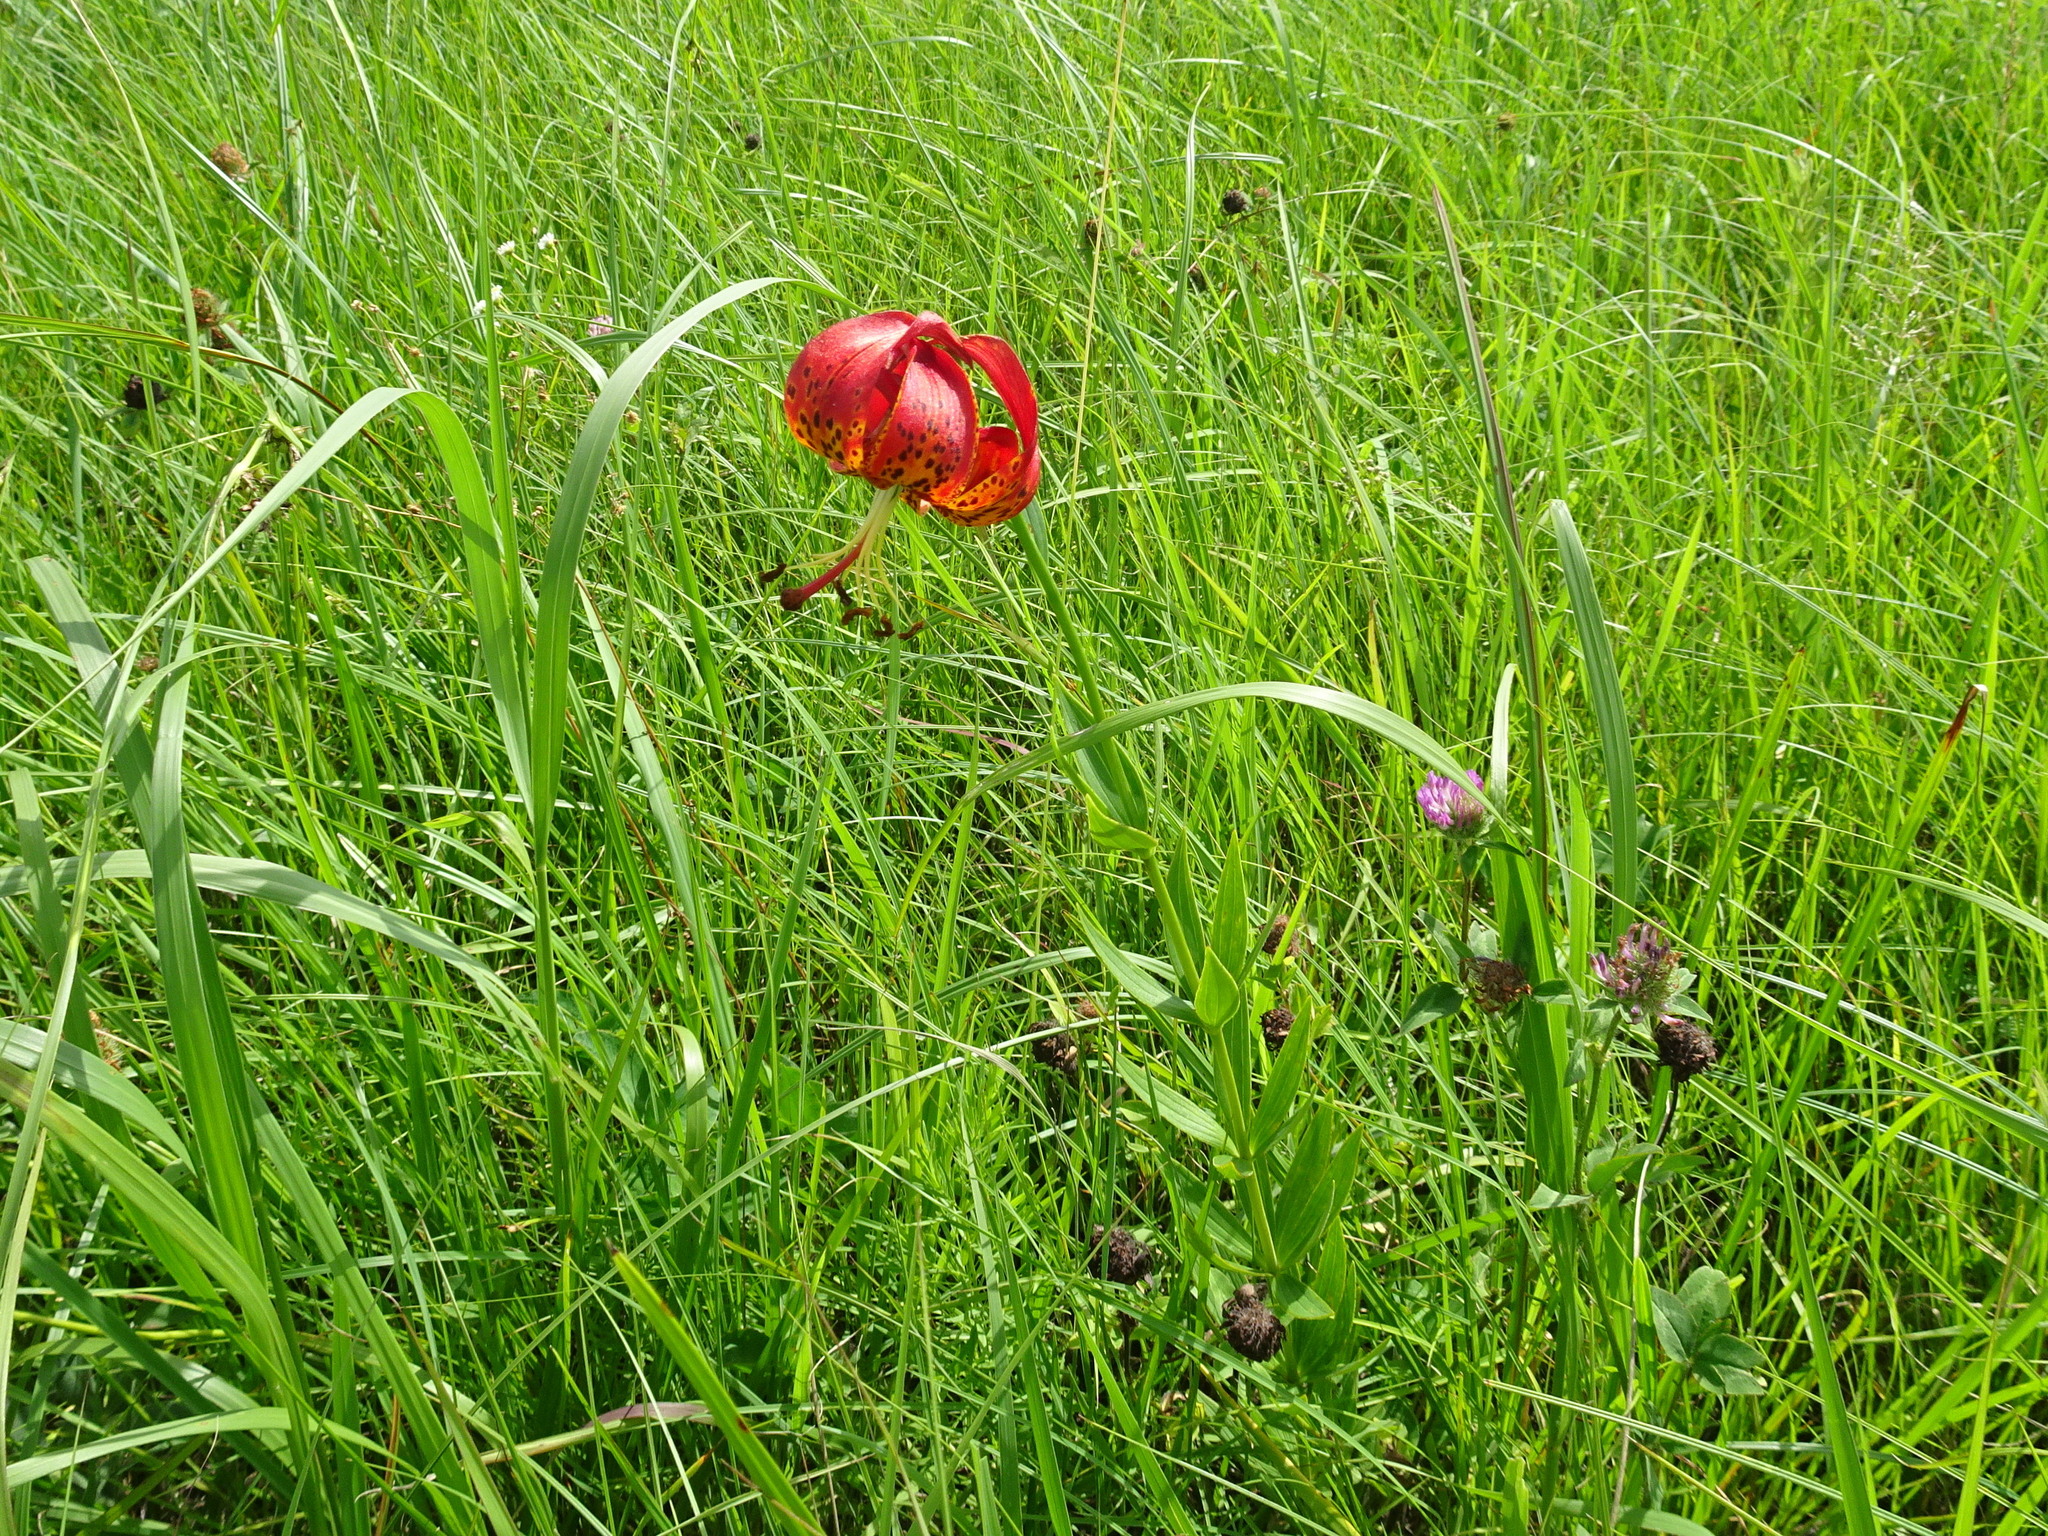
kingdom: Plantae
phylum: Tracheophyta
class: Liliopsida
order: Liliales
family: Liliaceae
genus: Lilium
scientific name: Lilium michiganense
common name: Michigan lily
